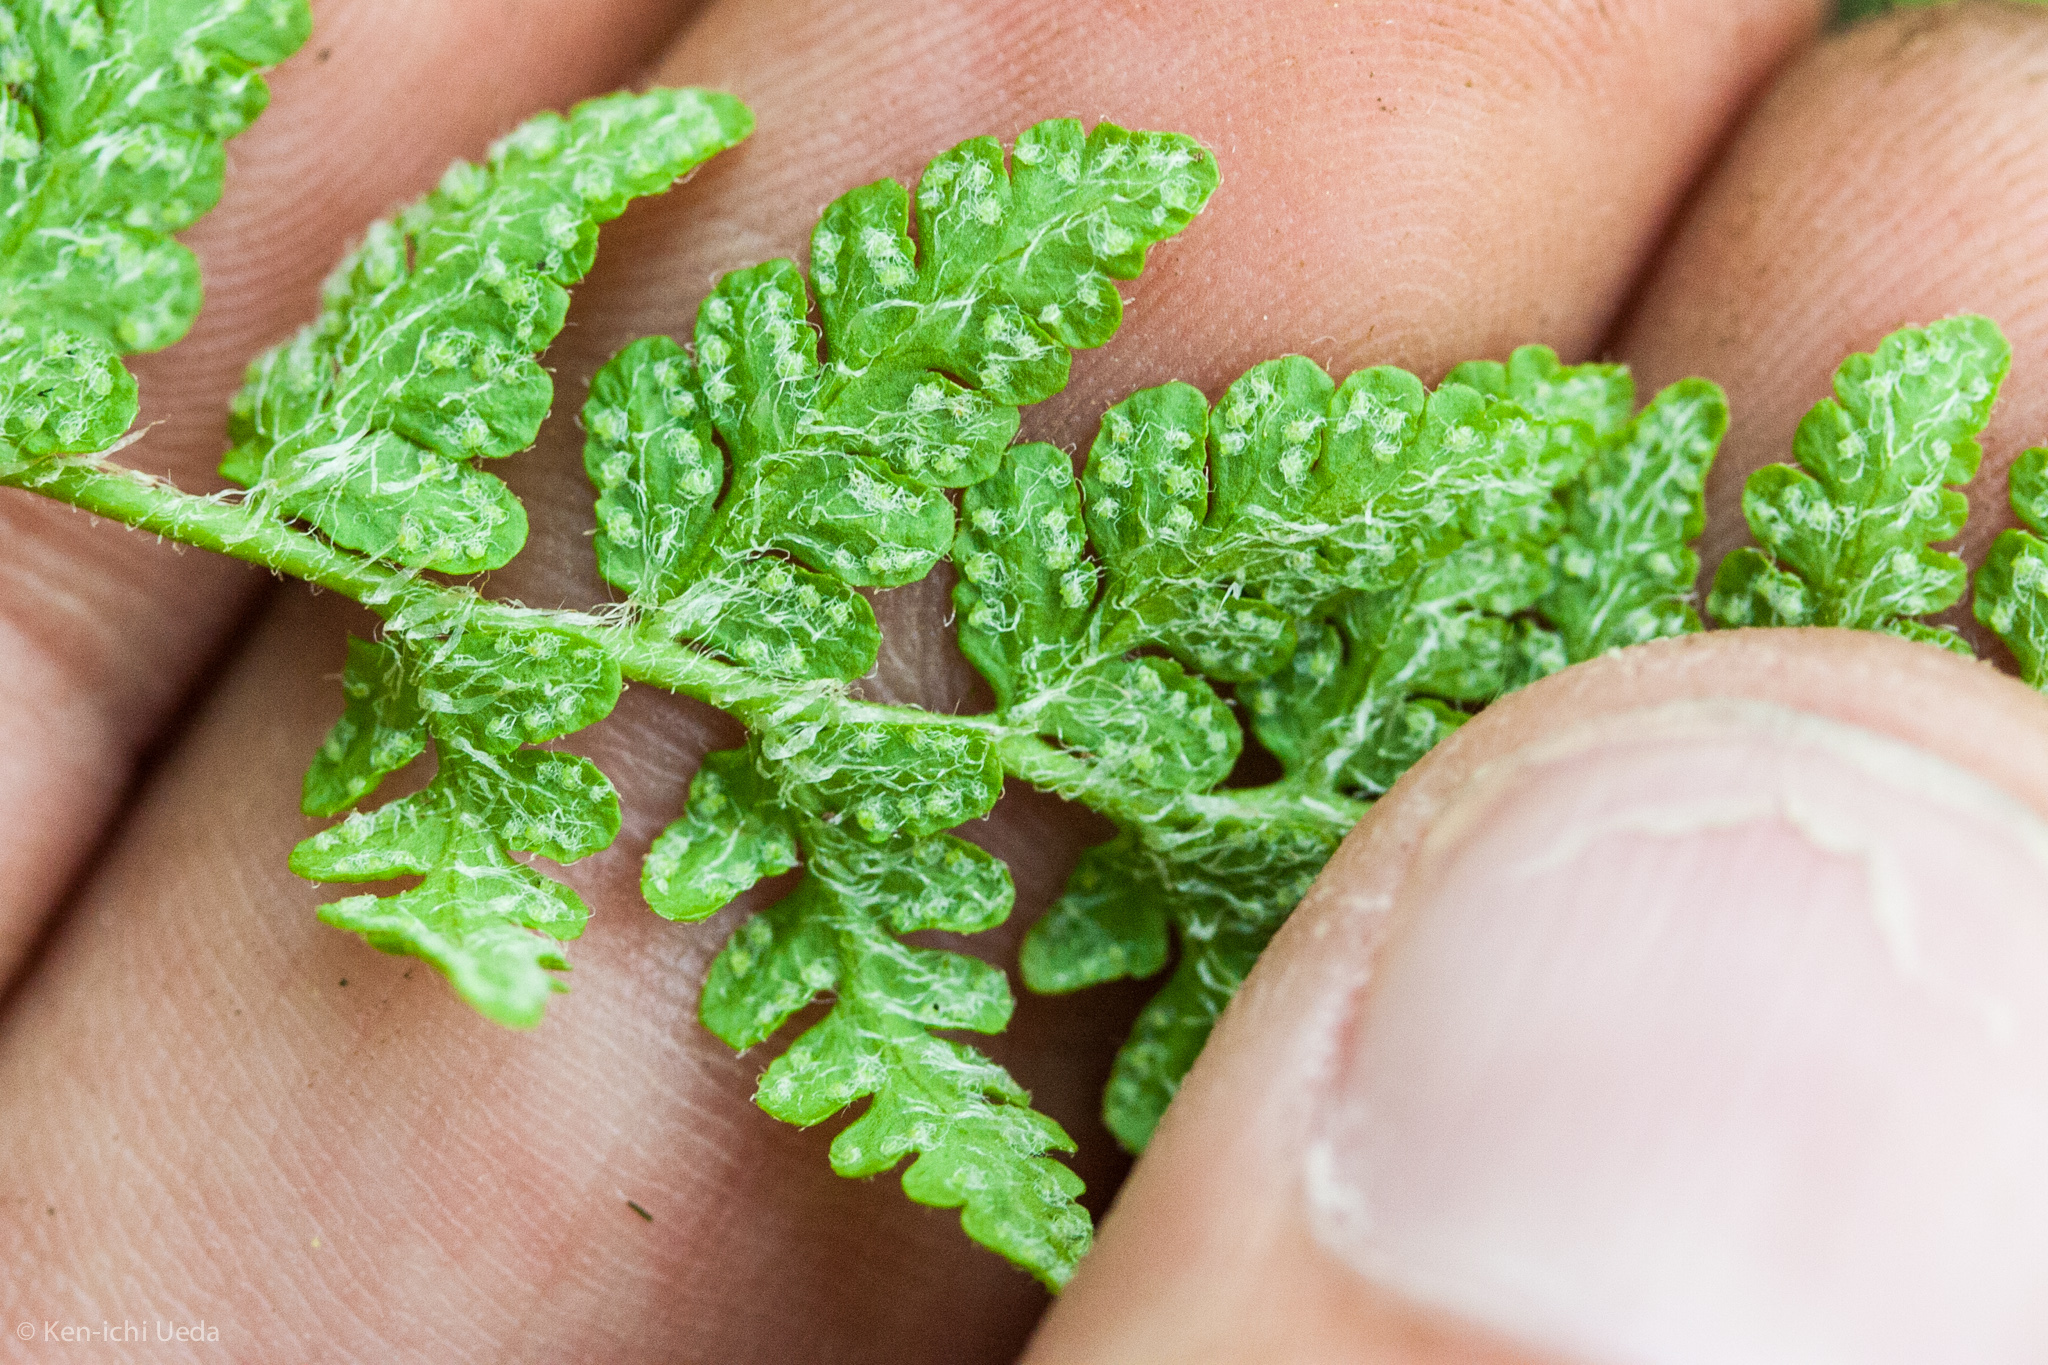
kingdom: Plantae
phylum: Tracheophyta
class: Polypodiopsida
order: Polypodiales
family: Woodsiaceae
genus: Woodsia
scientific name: Woodsia ilvensis
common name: Fragrant woodsia
